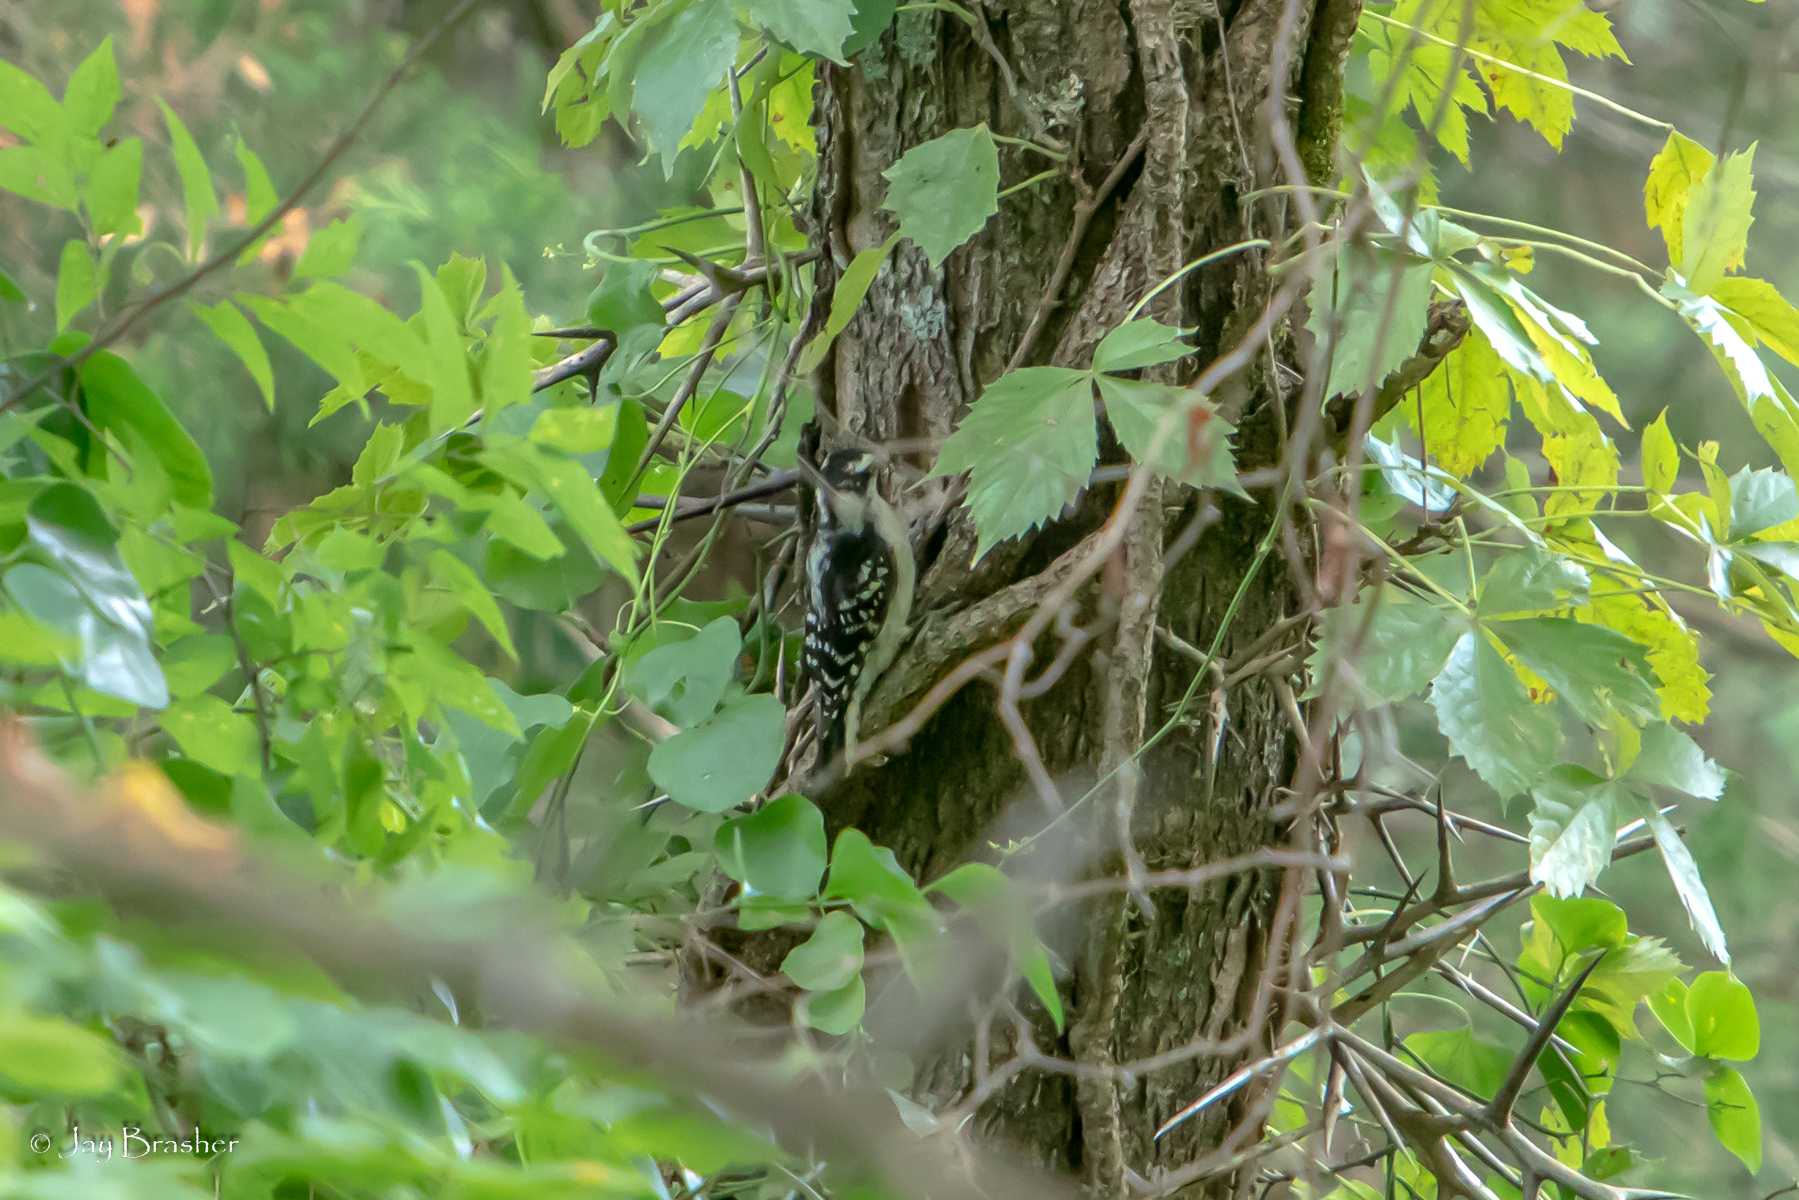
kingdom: Animalia
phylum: Chordata
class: Aves
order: Piciformes
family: Picidae
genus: Dryobates
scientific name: Dryobates pubescens
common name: Downy woodpecker
